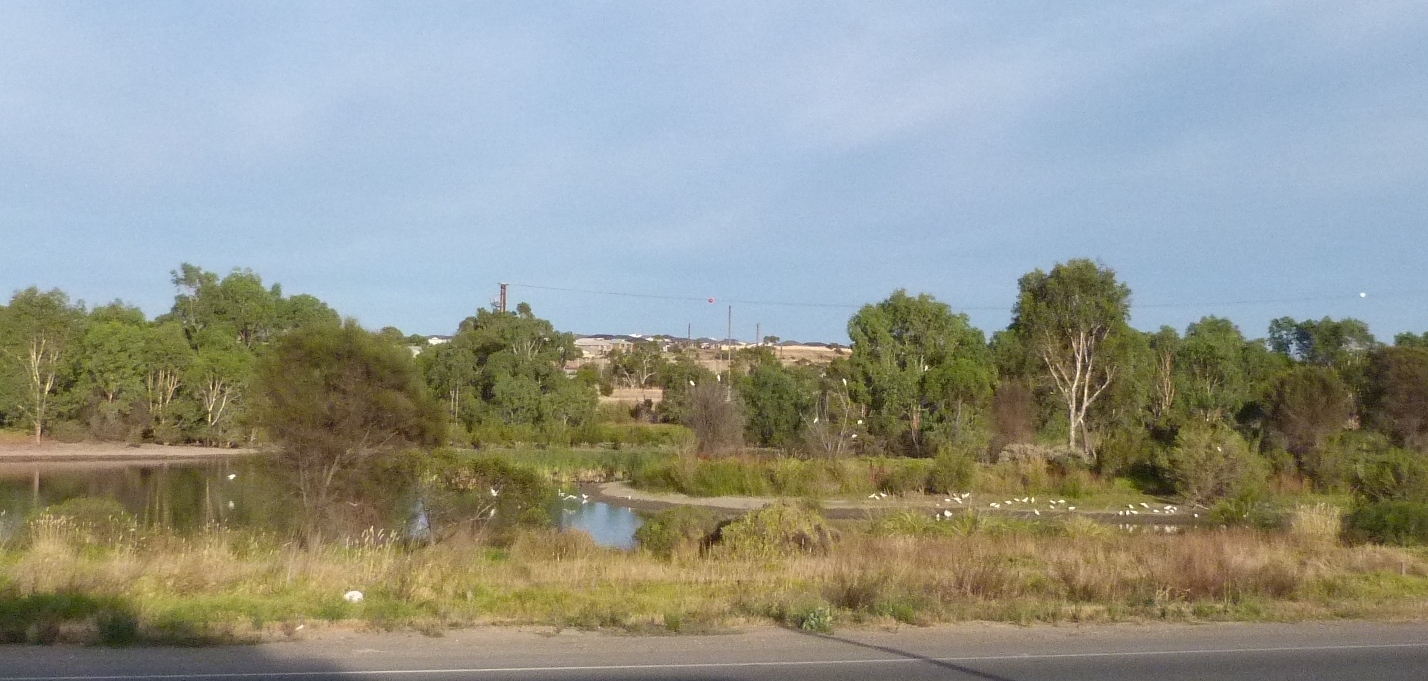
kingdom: Animalia
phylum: Chordata
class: Aves
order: Psittaciformes
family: Psittacidae
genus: Cacatua
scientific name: Cacatua galerita
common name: Sulphur-crested cockatoo
